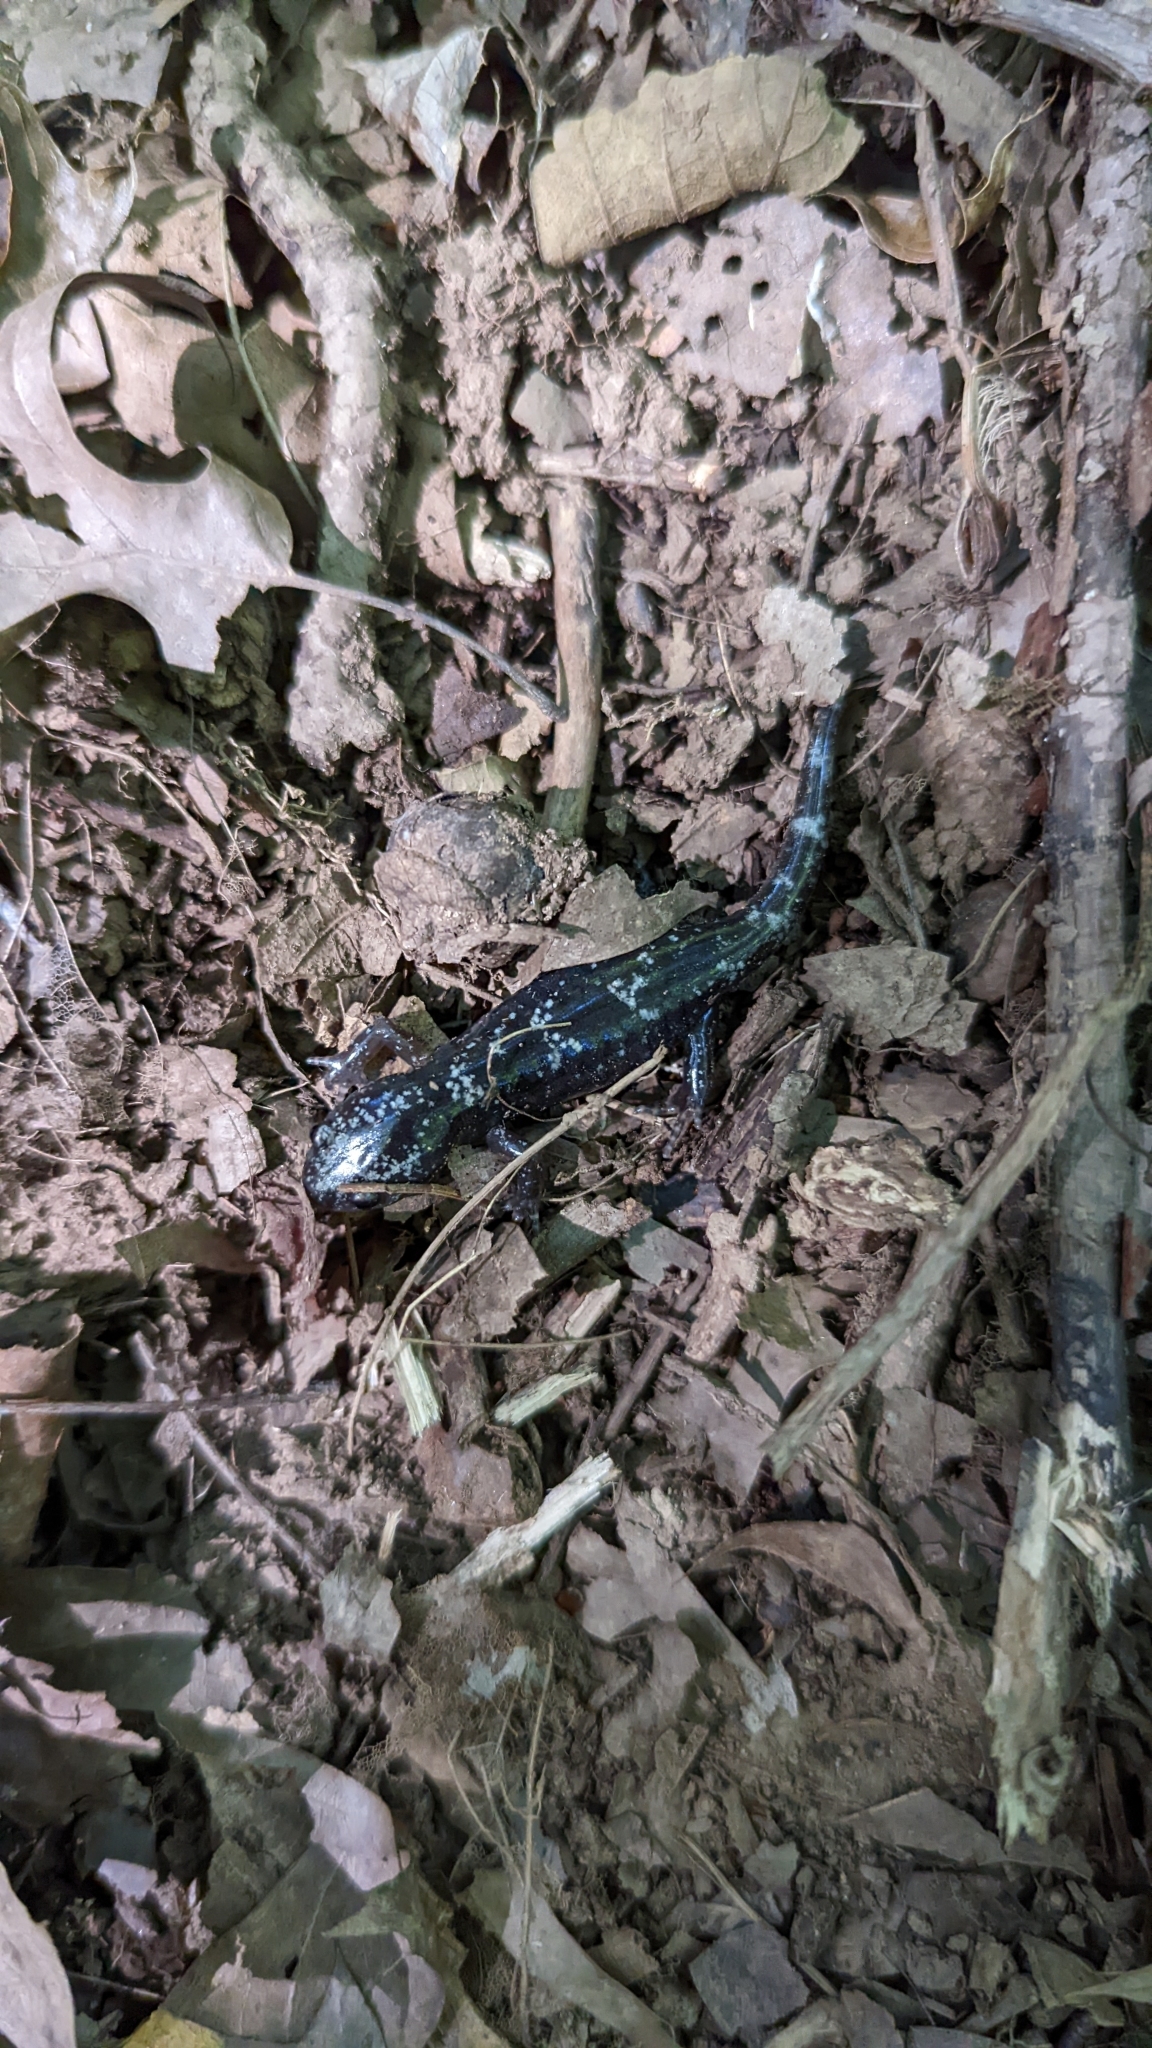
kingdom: Animalia
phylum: Chordata
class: Amphibia
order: Caudata
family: Ambystomatidae
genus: Ambystoma
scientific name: Ambystoma opacum
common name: Marbled salamander
